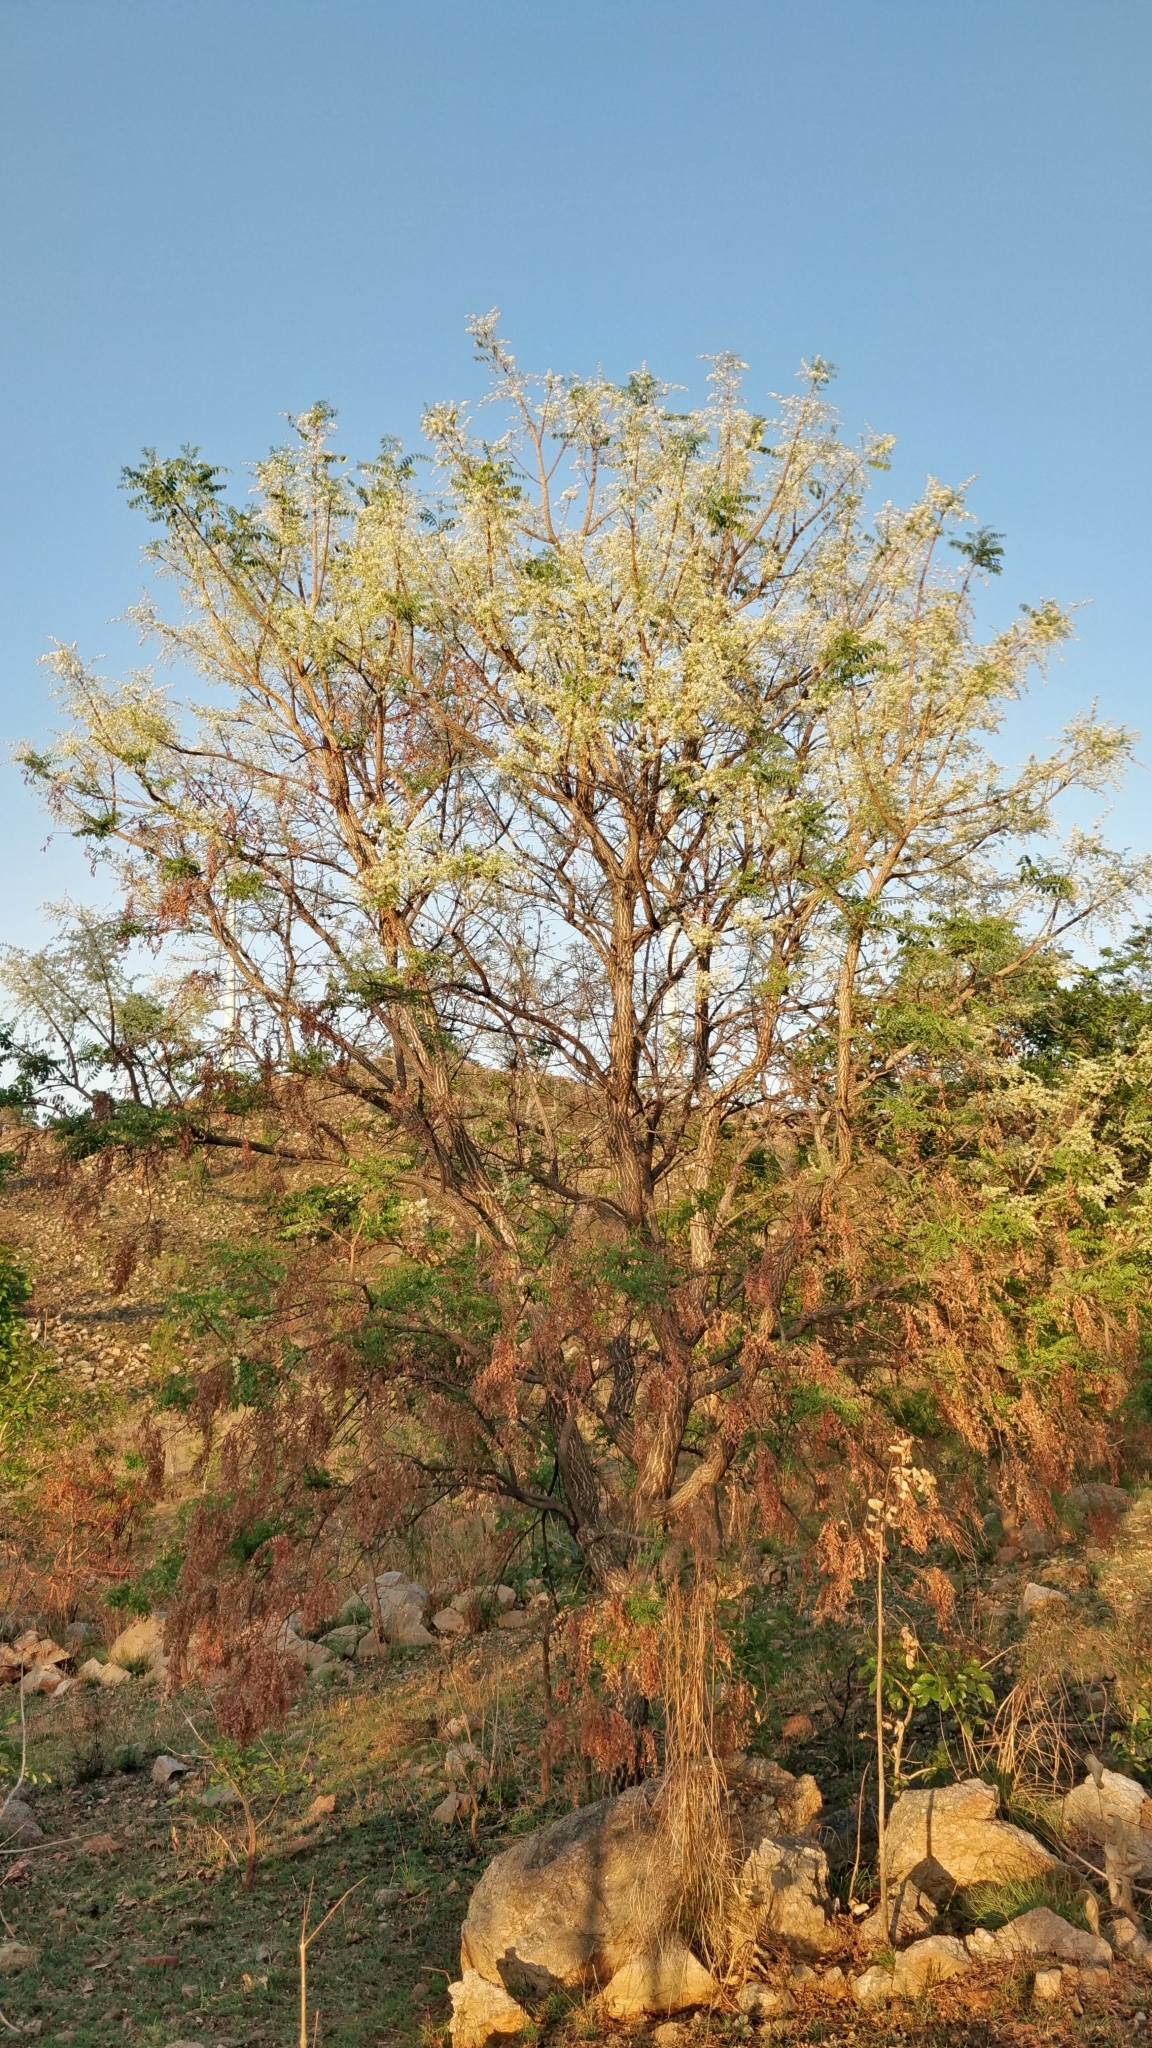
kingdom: Plantae
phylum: Tracheophyta
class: Magnoliopsida
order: Sapindales
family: Rutaceae
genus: Chloroxylon
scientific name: Chloroxylon swietenia
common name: East indian satinwood
